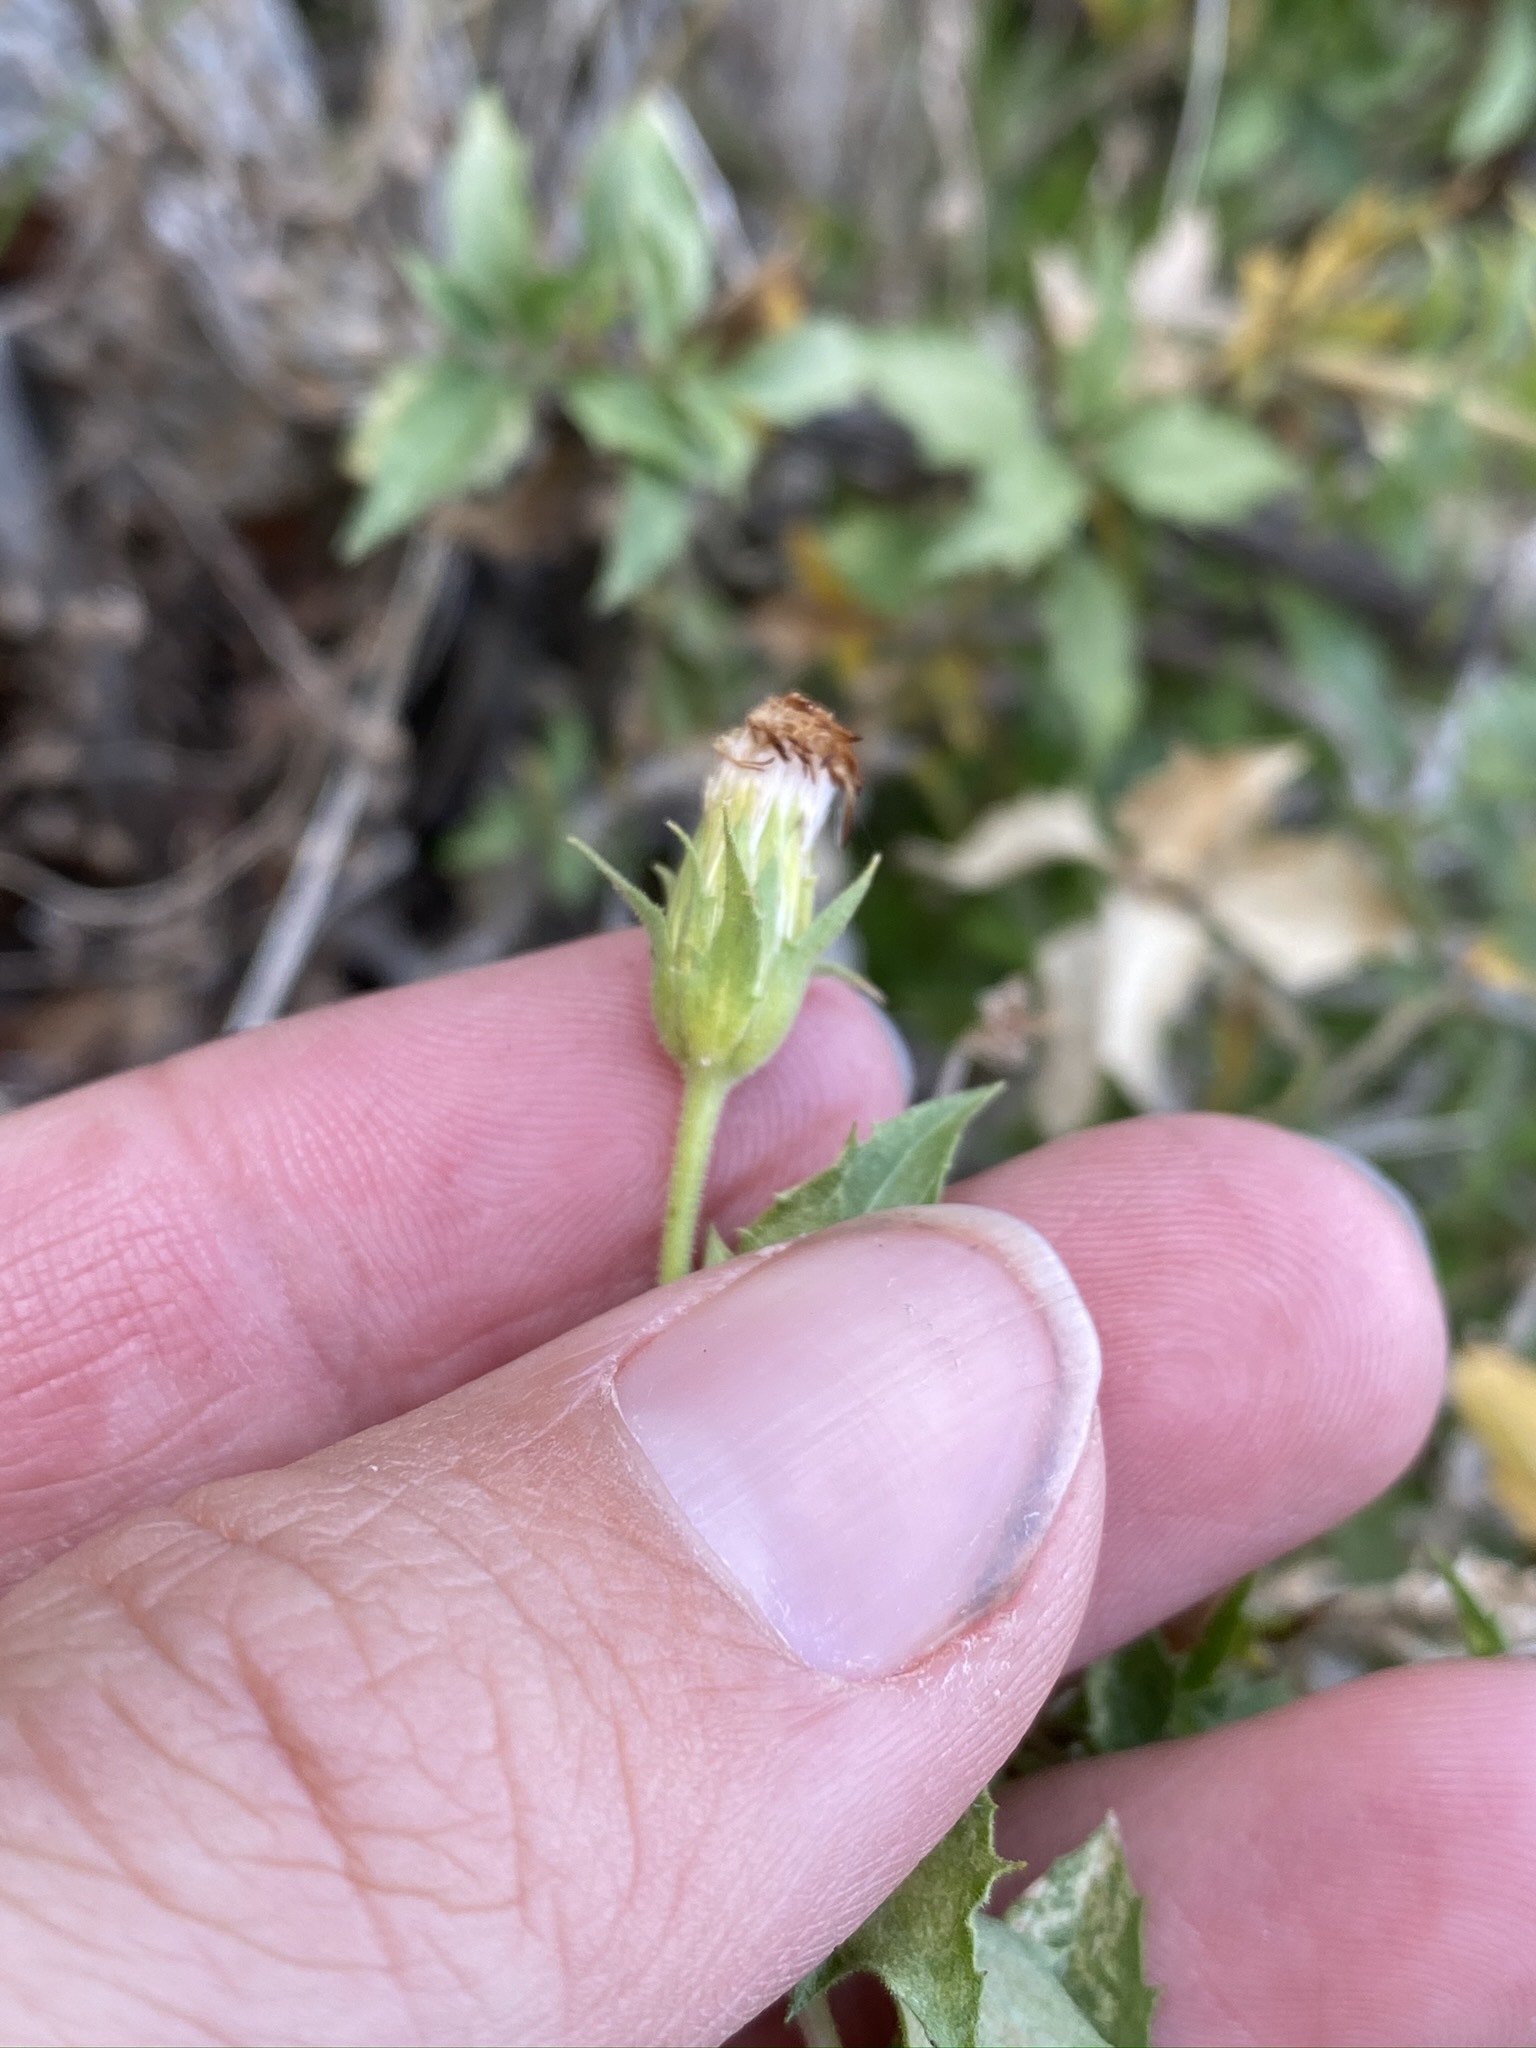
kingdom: Plantae
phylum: Tracheophyta
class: Magnoliopsida
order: Asterales
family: Asteraceae
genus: Brickellia
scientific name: Brickellia atractyloides
